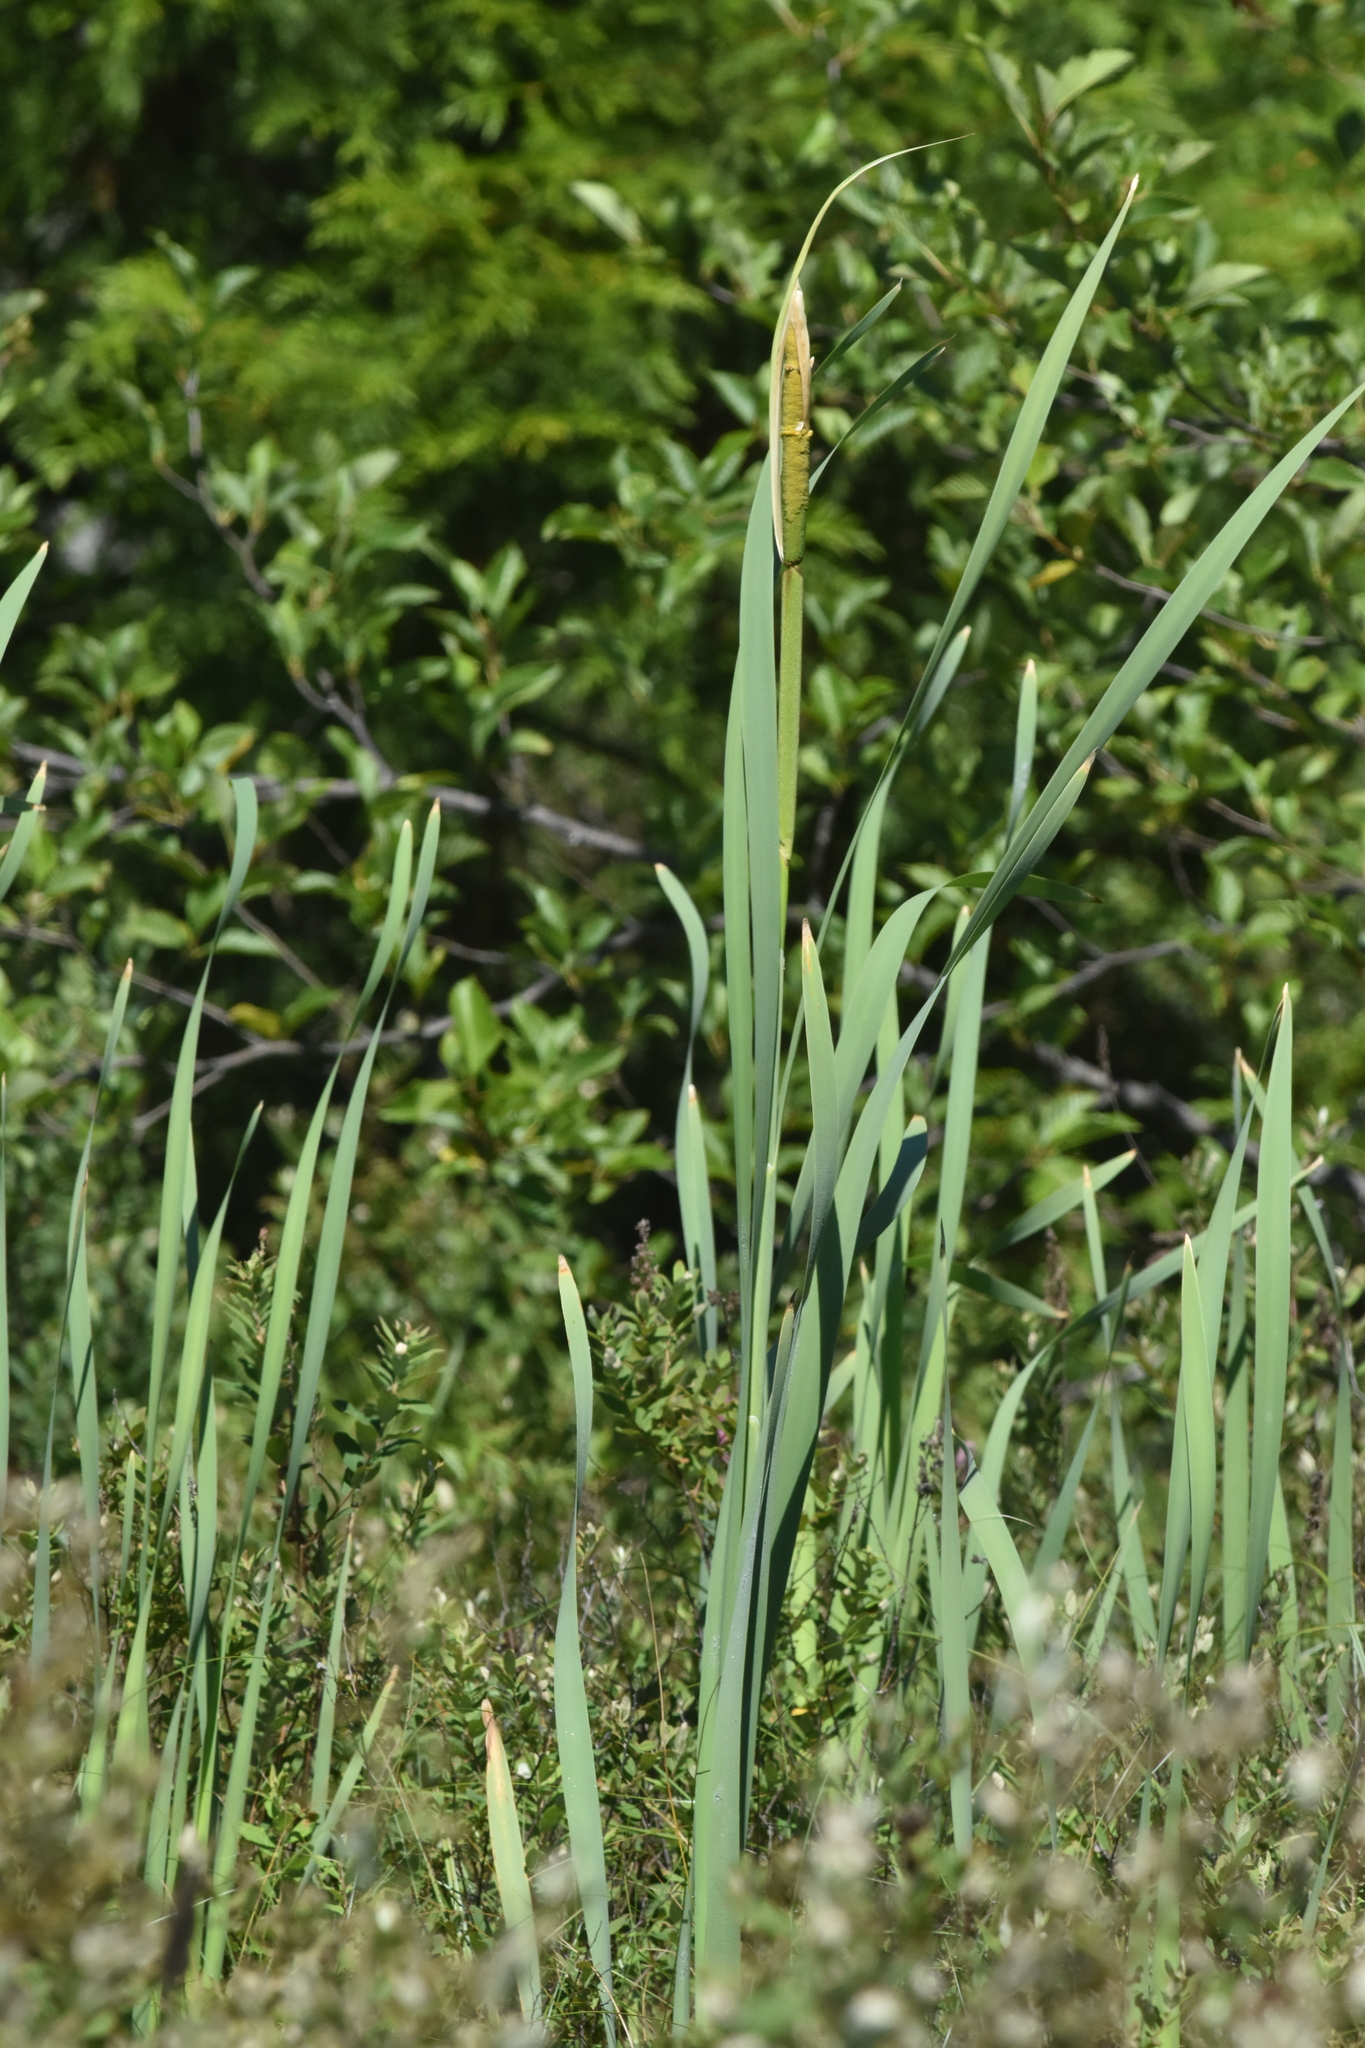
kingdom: Plantae
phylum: Tracheophyta
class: Liliopsida
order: Poales
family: Typhaceae
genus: Typha
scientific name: Typha latifolia
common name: Broadleaf cattail
